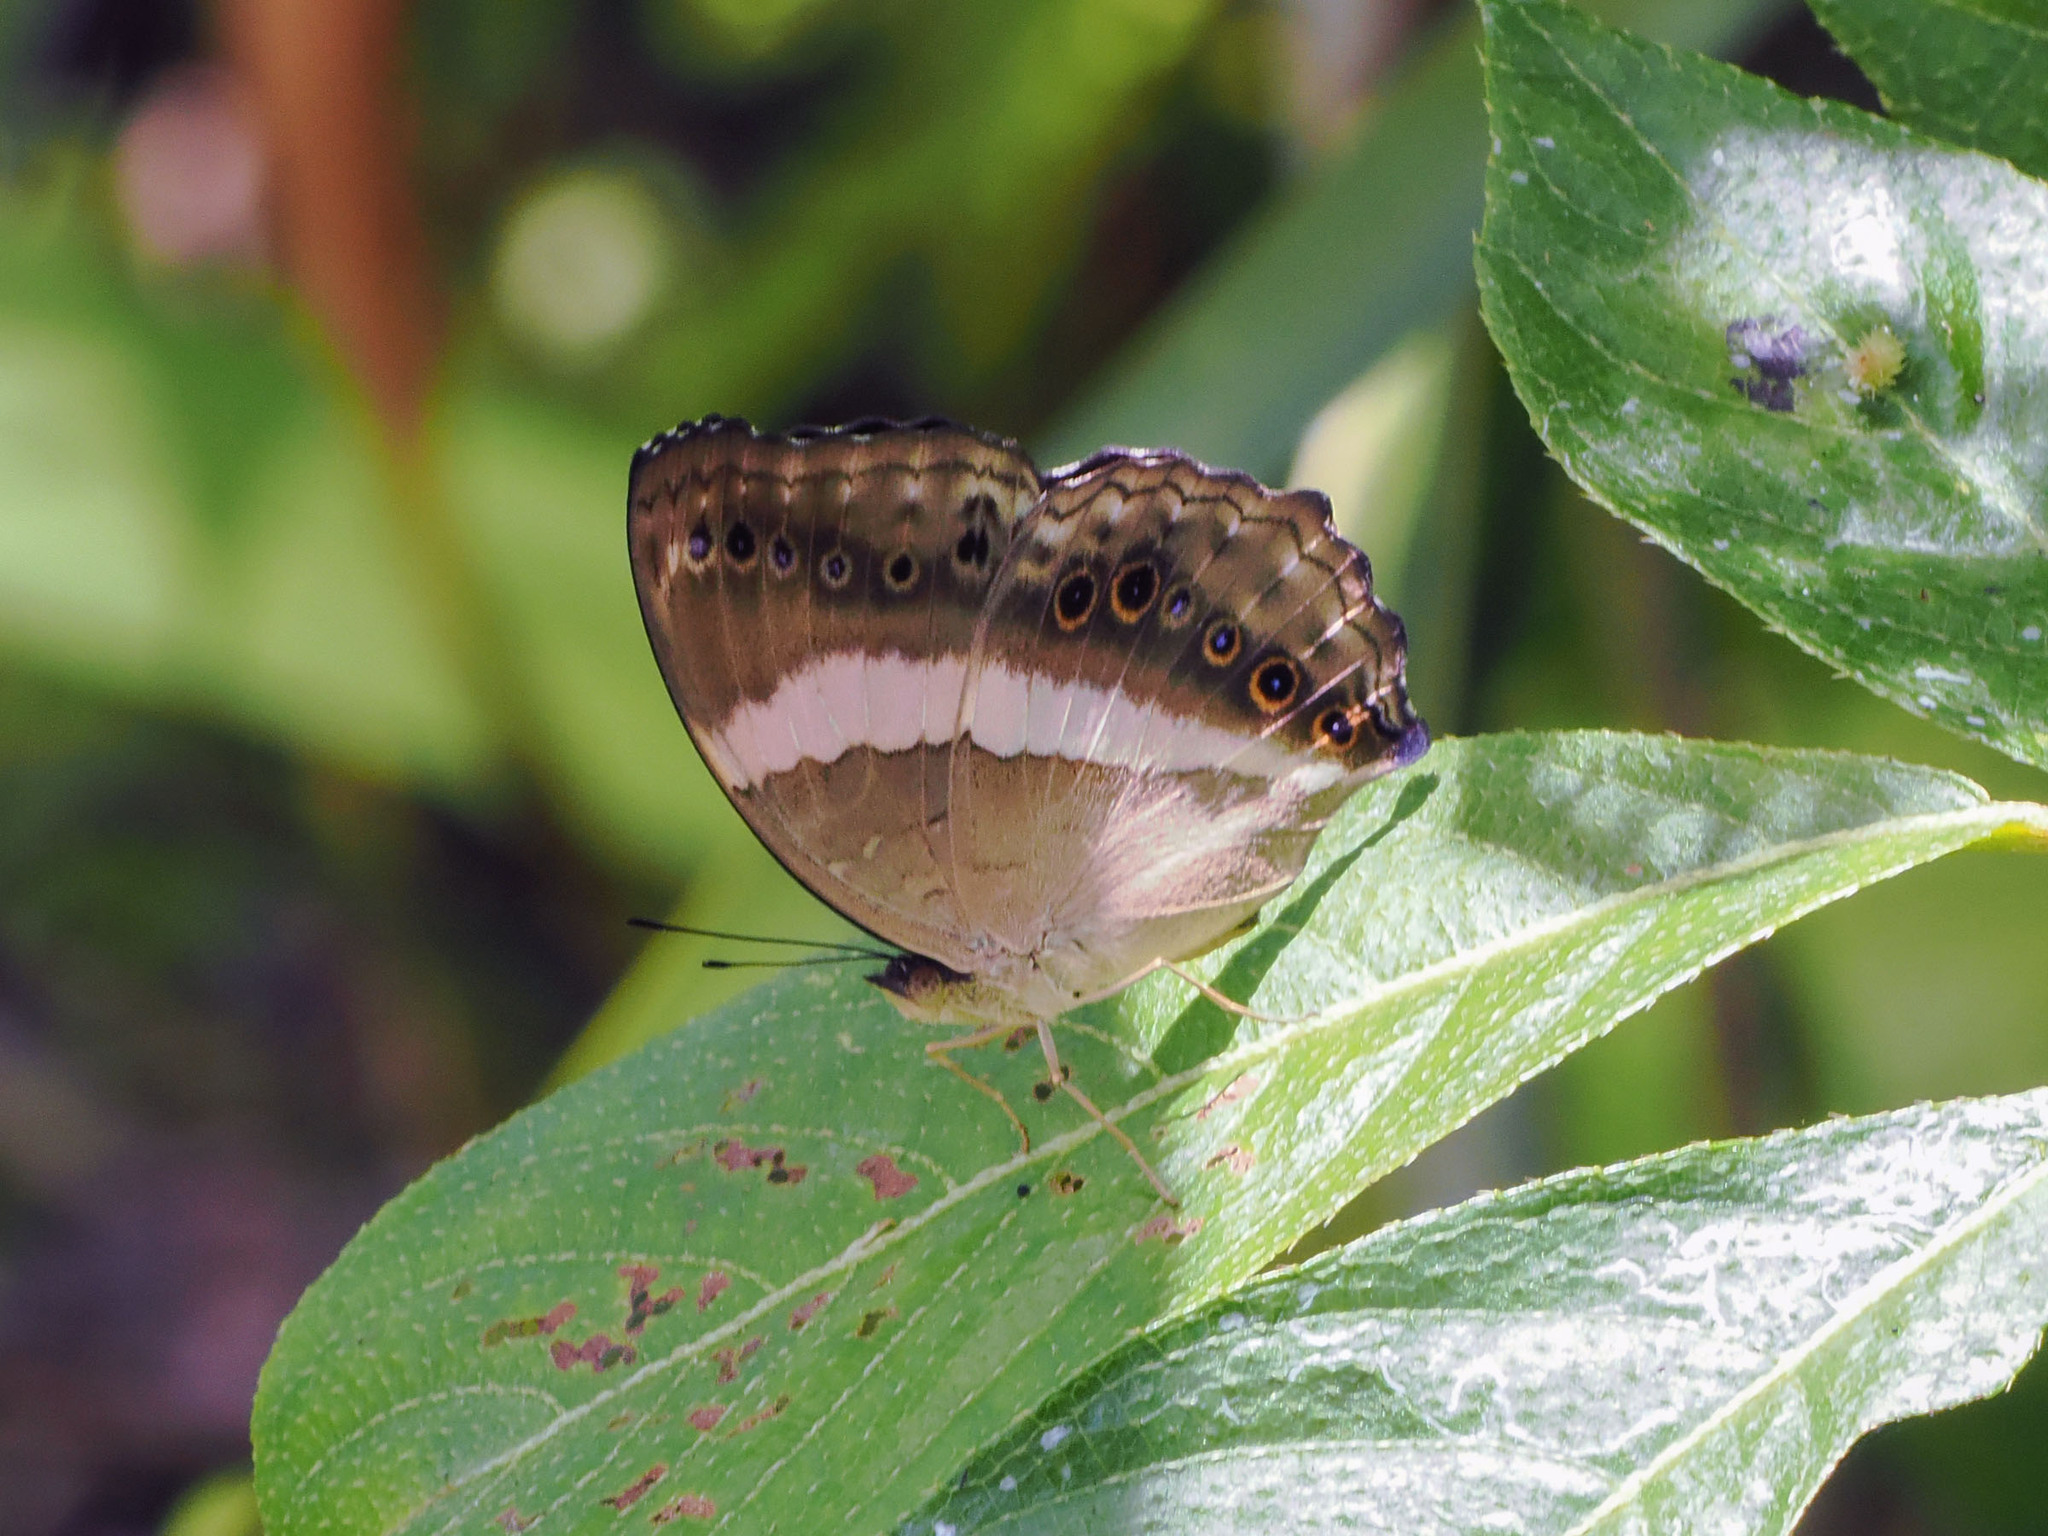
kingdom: Animalia
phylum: Arthropoda
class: Insecta
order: Lepidoptera
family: Nymphalidae
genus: Yoma
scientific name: Yoma algina
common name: New guinea lurcher
